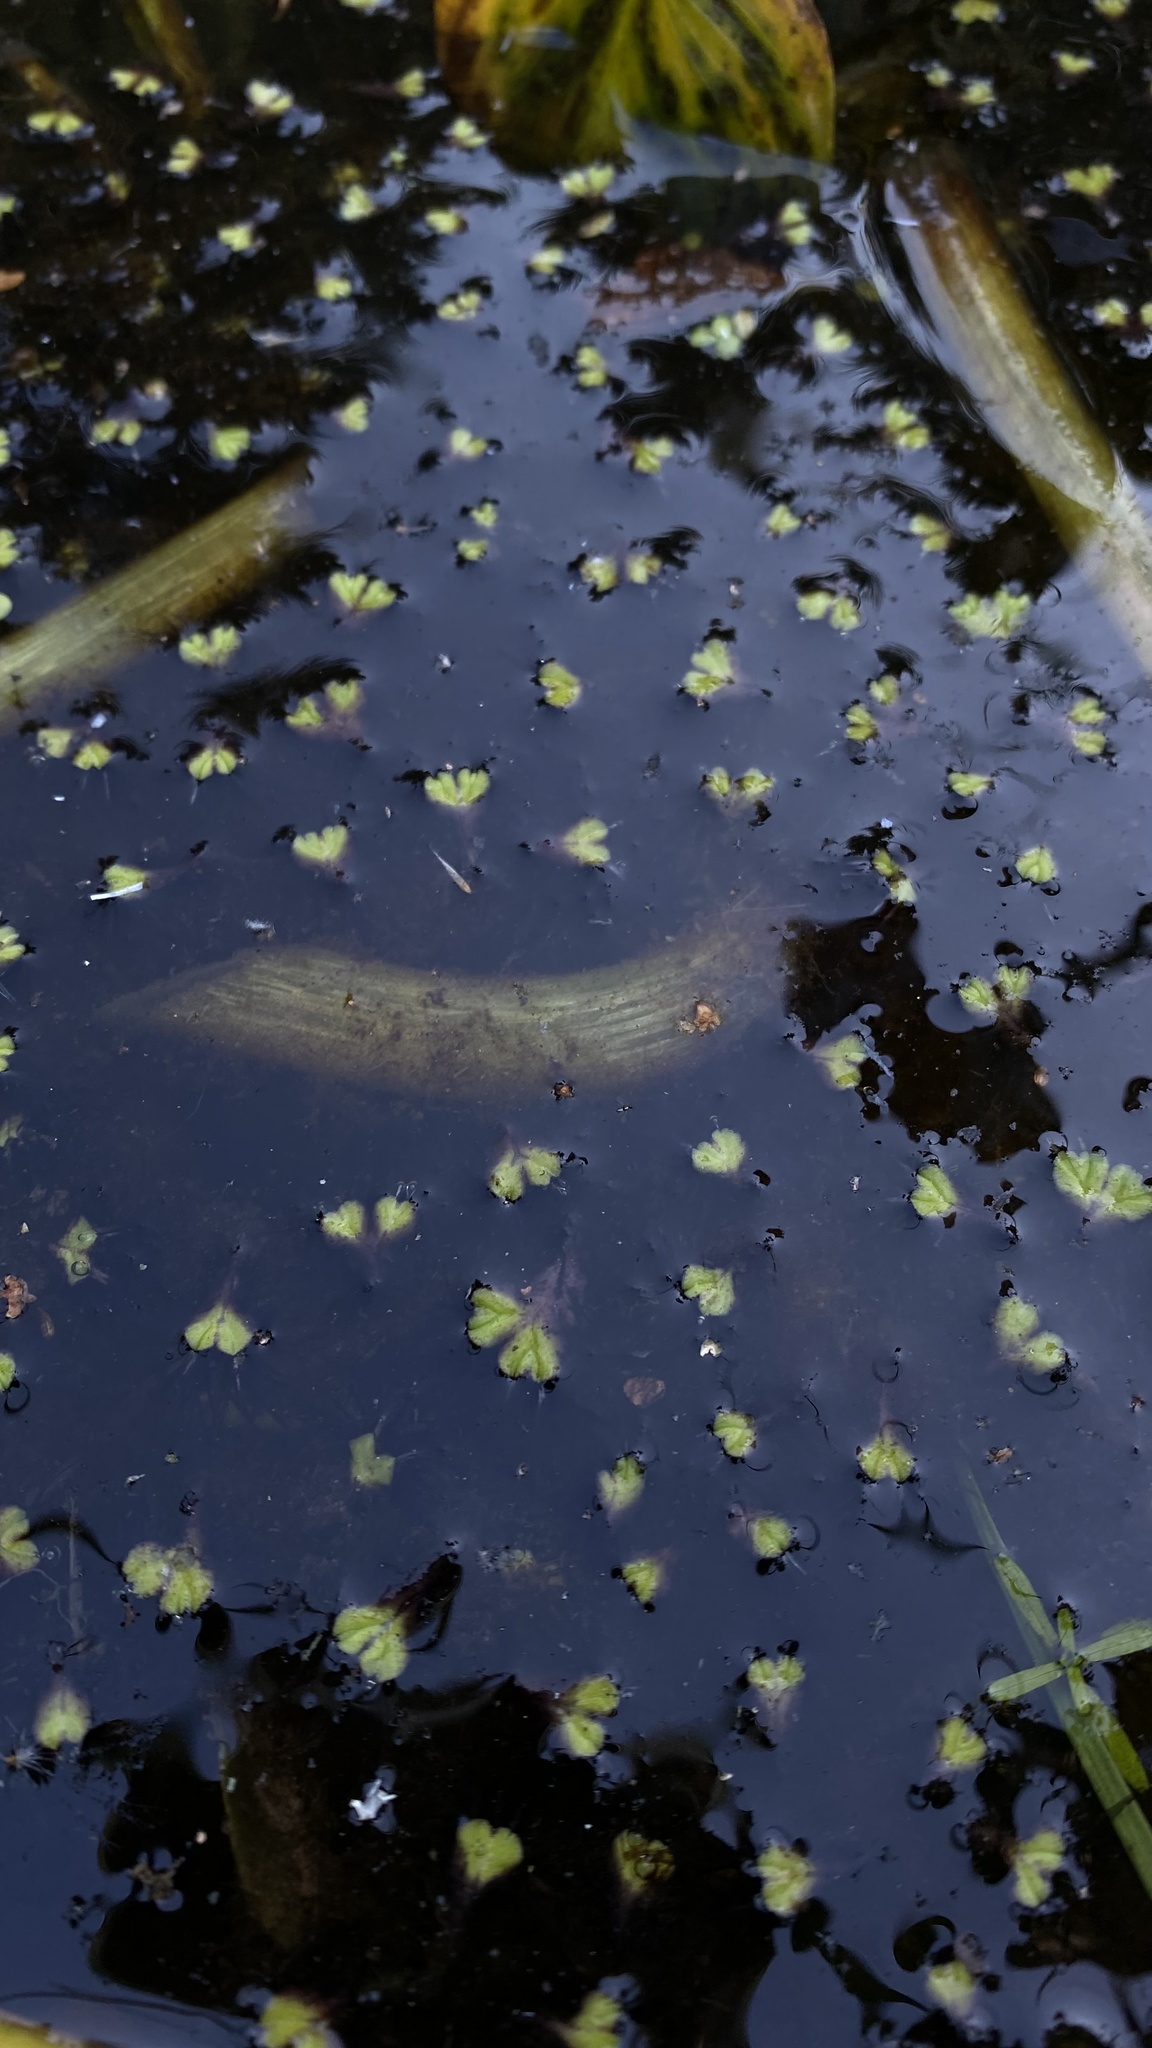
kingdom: Plantae
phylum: Marchantiophyta
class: Marchantiopsida
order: Marchantiales
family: Ricciaceae
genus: Ricciocarpos
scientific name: Ricciocarpos natans
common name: Purple-fringed liverwort
